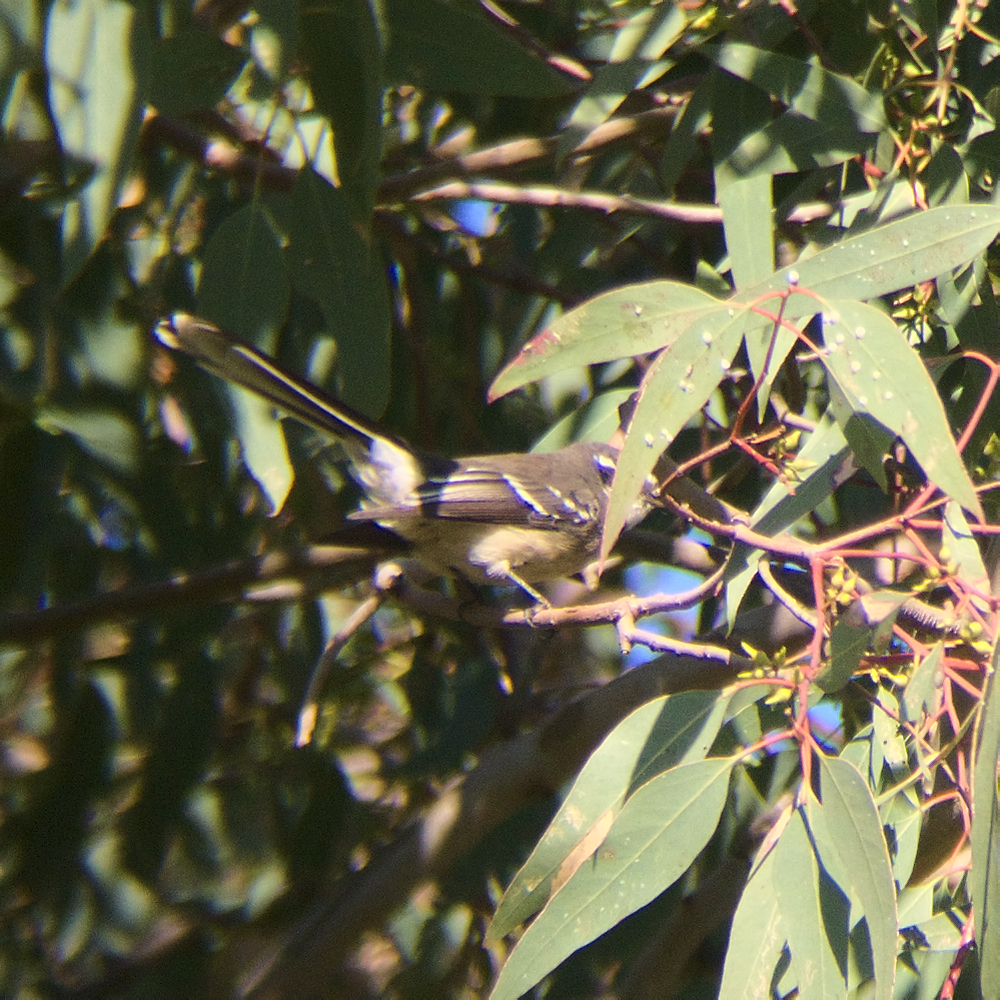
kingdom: Animalia
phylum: Chordata
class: Aves
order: Passeriformes
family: Rhipiduridae
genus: Rhipidura
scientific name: Rhipidura albiscapa
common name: Grey fantail
